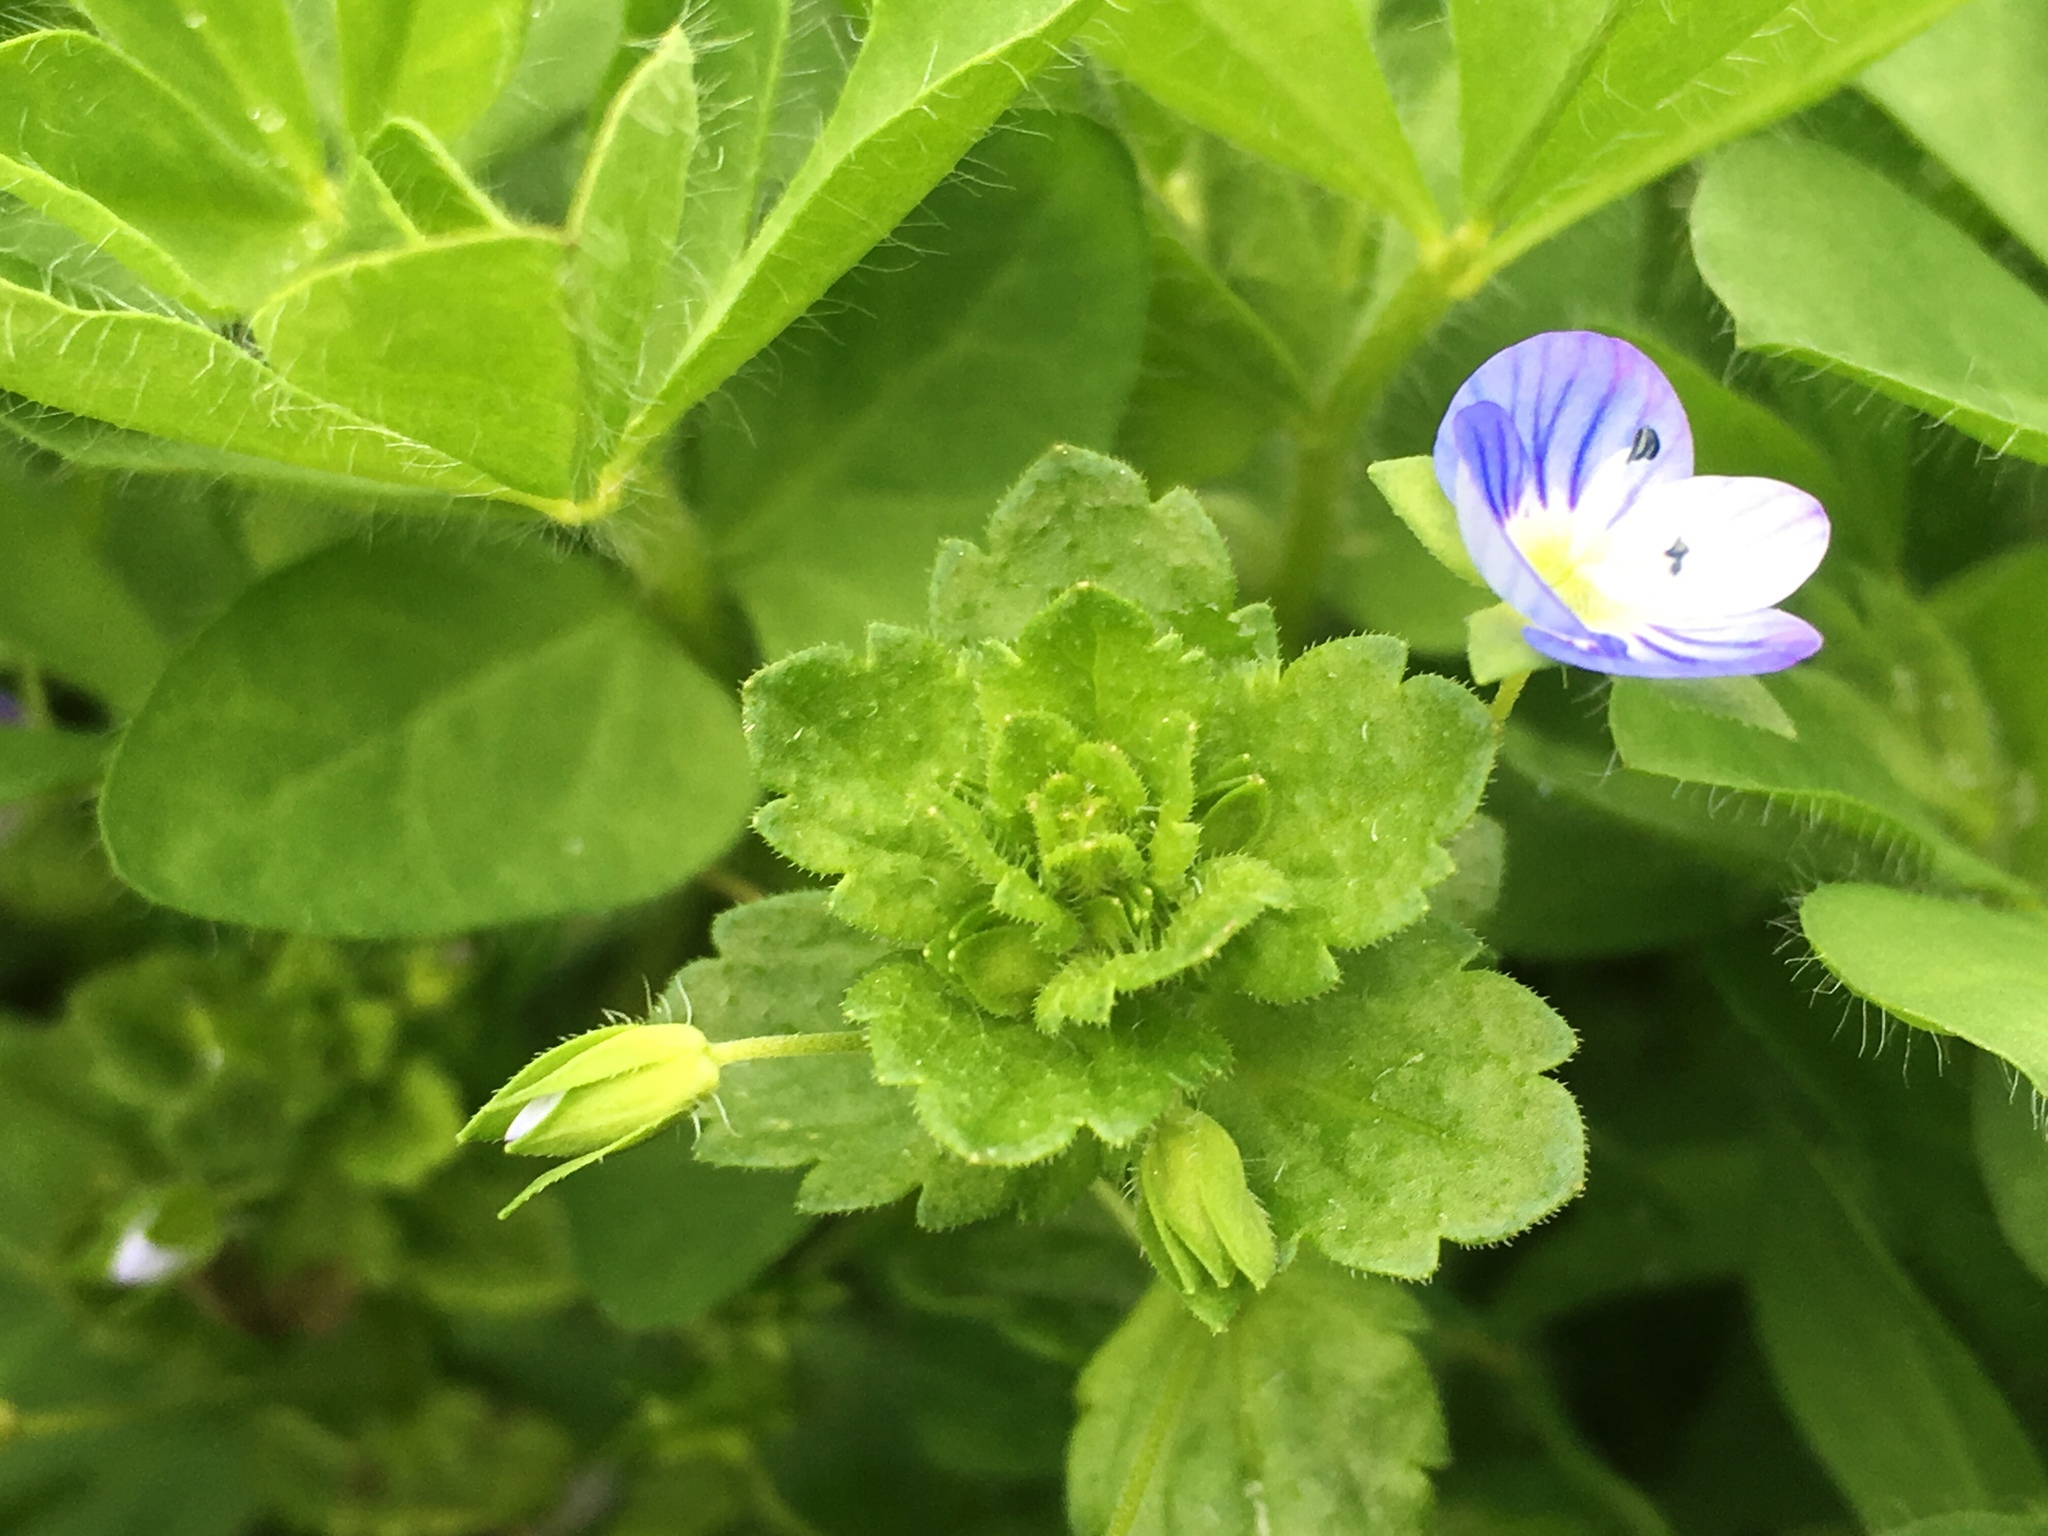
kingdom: Plantae
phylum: Tracheophyta
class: Magnoliopsida
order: Lamiales
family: Plantaginaceae
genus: Veronica
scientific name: Veronica persica
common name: Common field-speedwell
